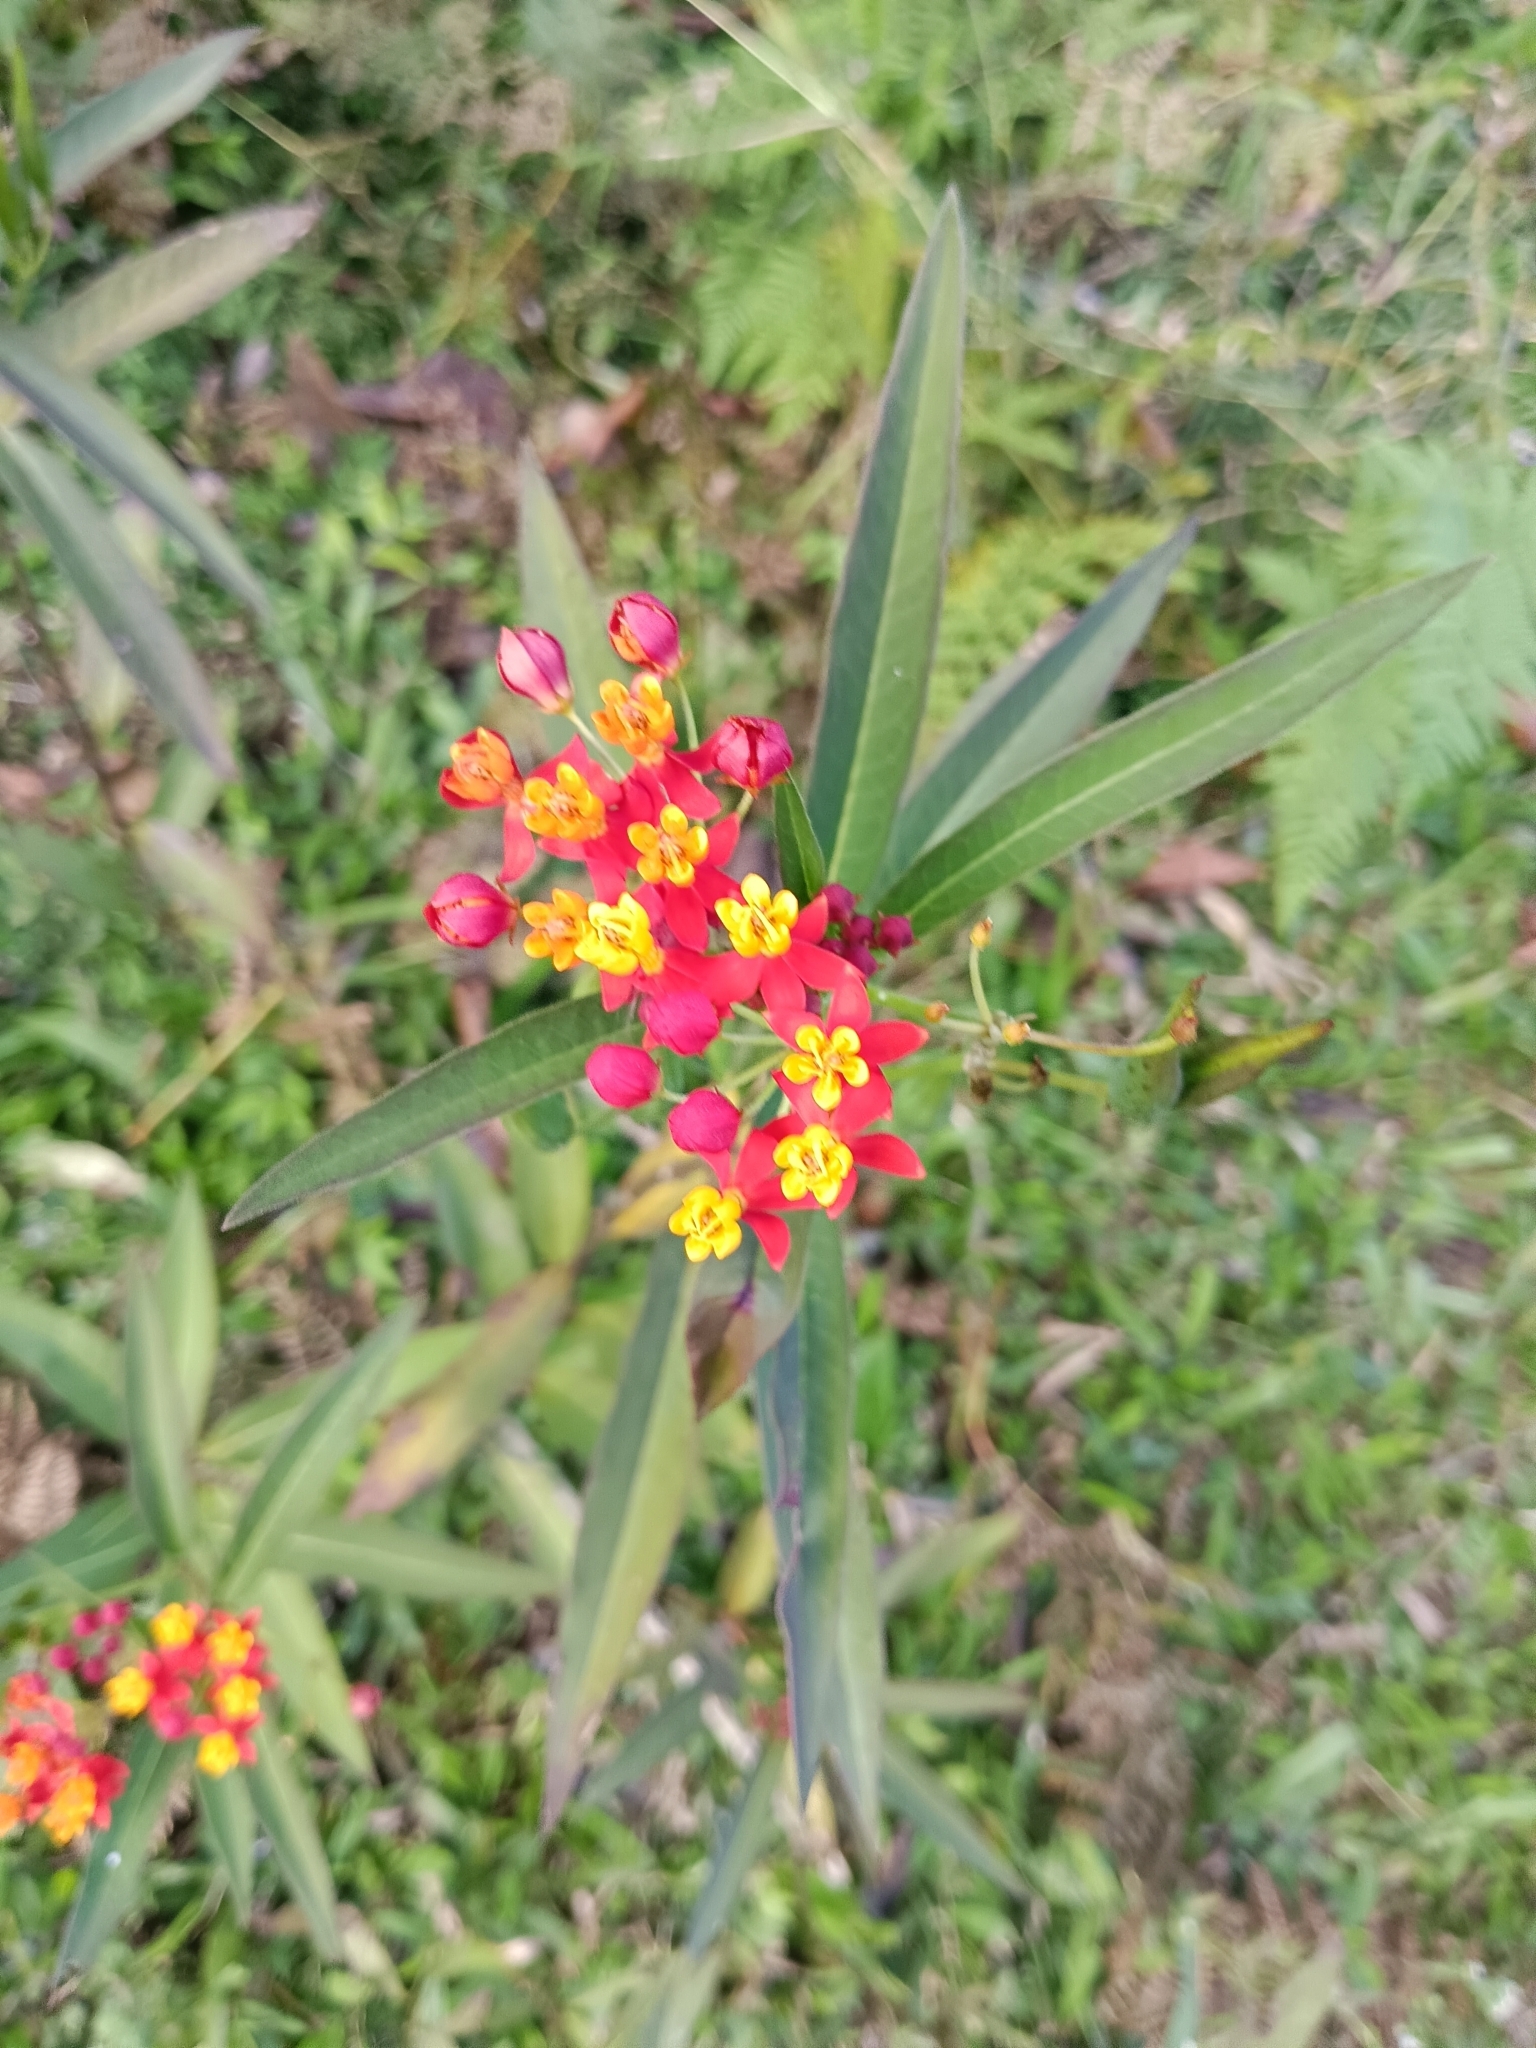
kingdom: Plantae
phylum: Tracheophyta
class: Magnoliopsida
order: Gentianales
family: Apocynaceae
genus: Asclepias
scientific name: Asclepias curassavica
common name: Bloodflower
